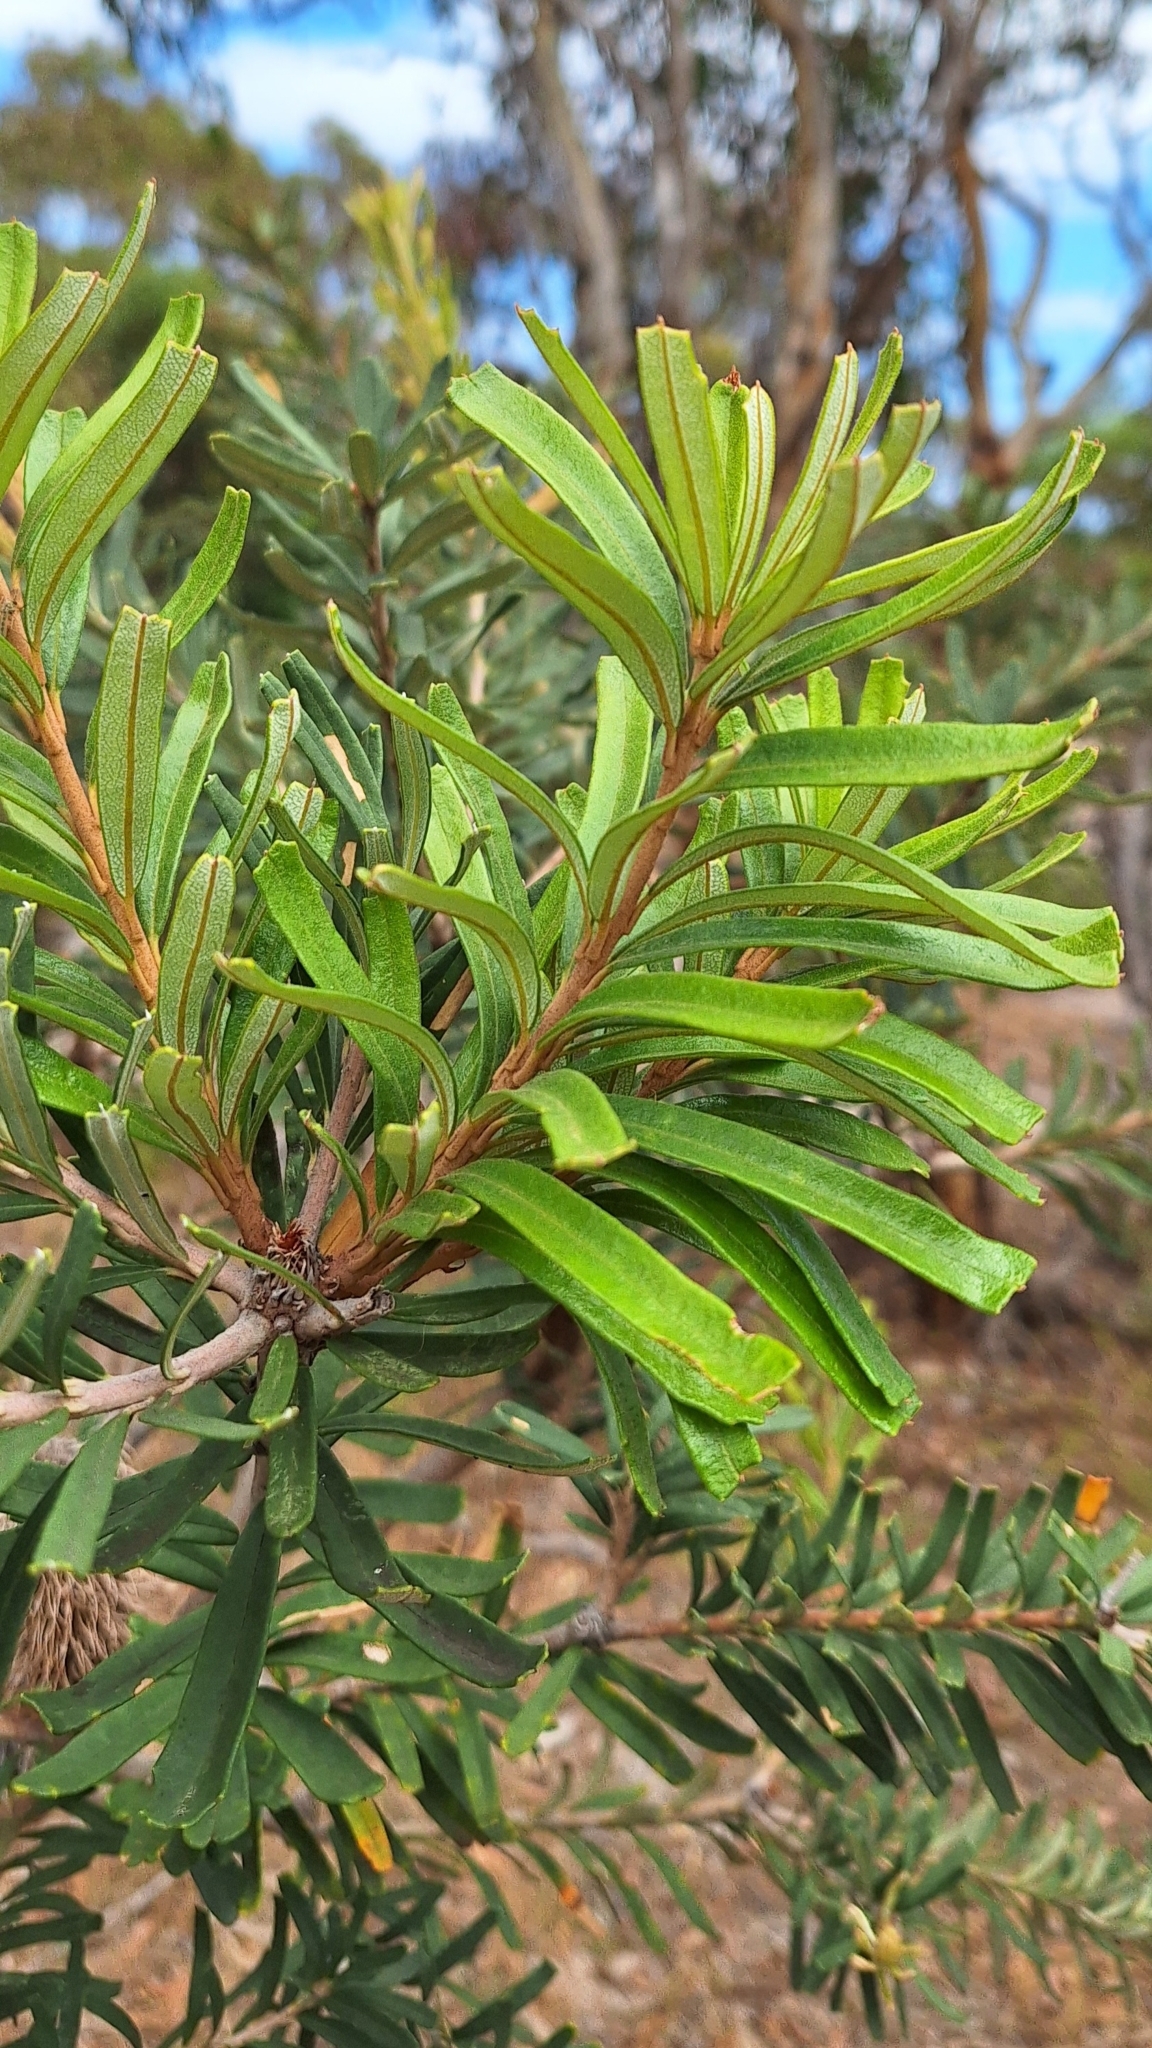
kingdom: Plantae
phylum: Tracheophyta
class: Magnoliopsida
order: Proteales
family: Proteaceae
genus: Banksia
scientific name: Banksia marginata
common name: Silver banksia
